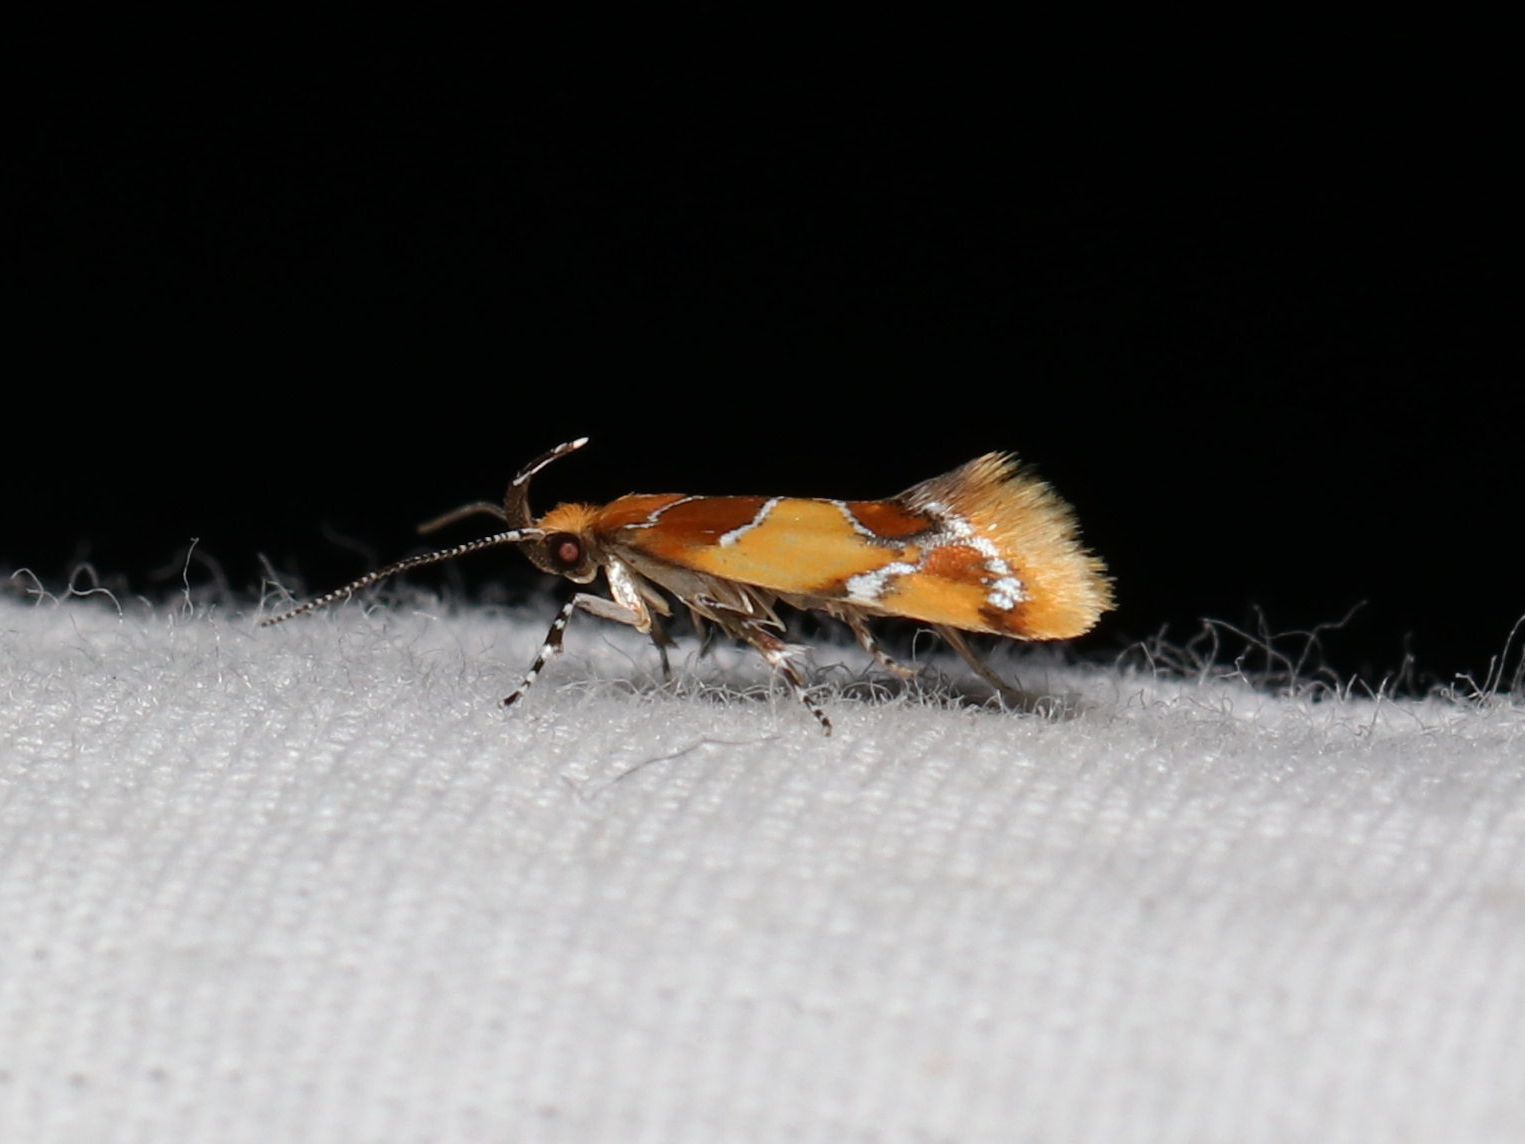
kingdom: Animalia
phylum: Arthropoda
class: Insecta
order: Lepidoptera
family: Oecophoridae
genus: Callima
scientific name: Callima argenticinctella
